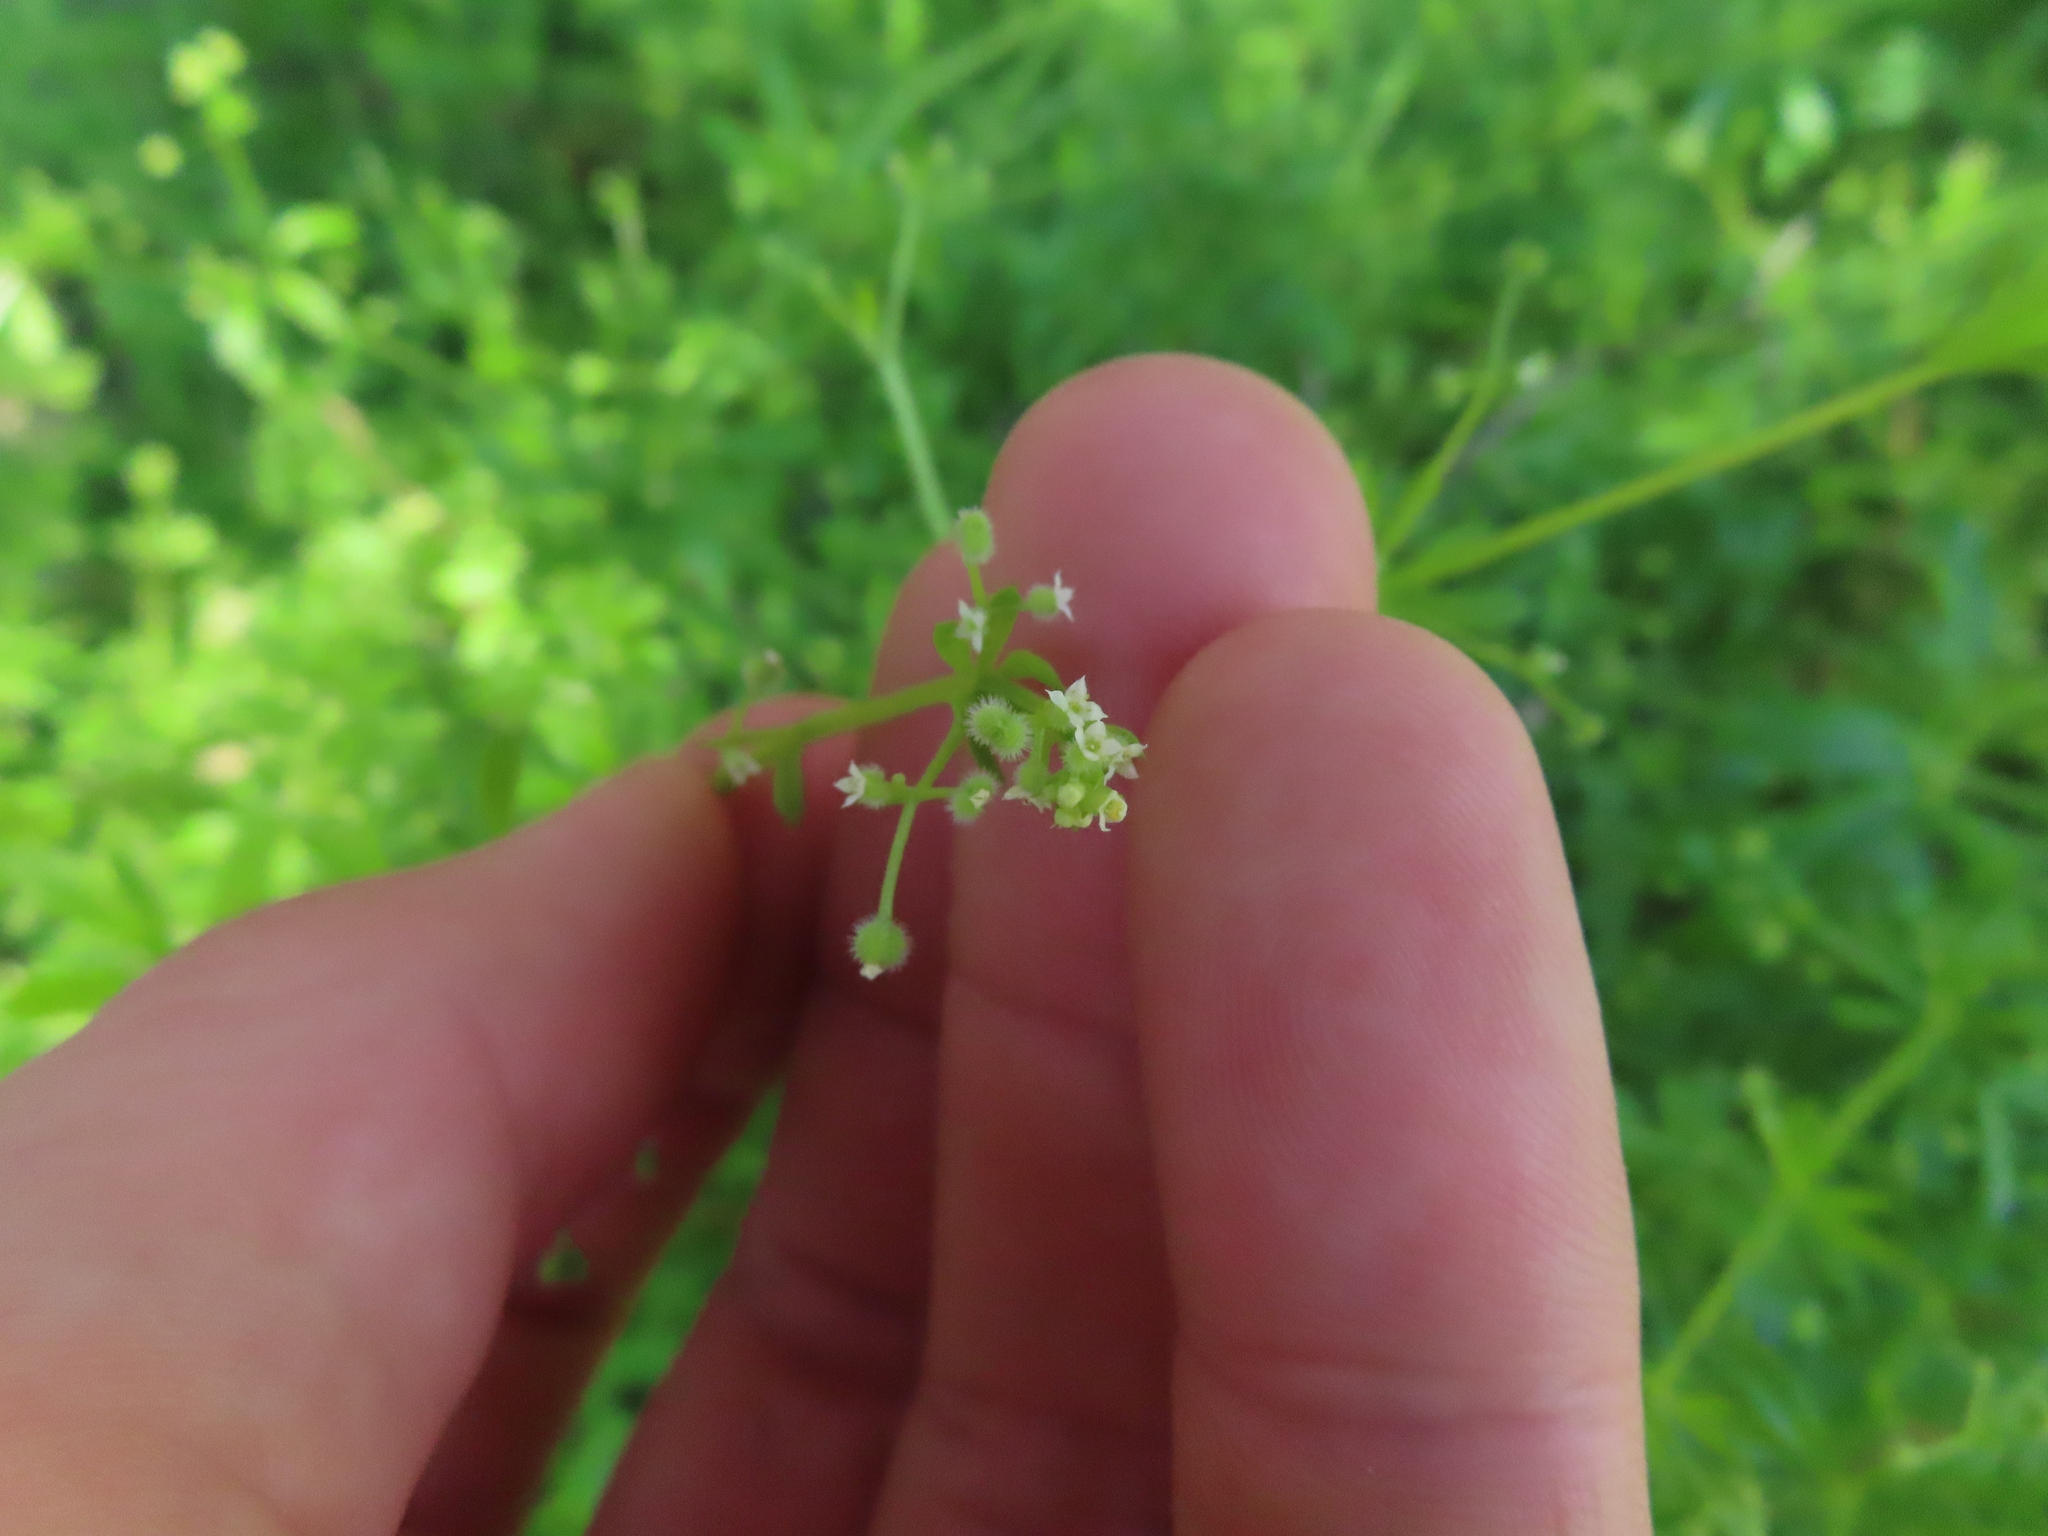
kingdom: Plantae
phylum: Tracheophyta
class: Magnoliopsida
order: Gentianales
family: Rubiaceae
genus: Galium
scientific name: Galium aparine
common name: Cleavers
